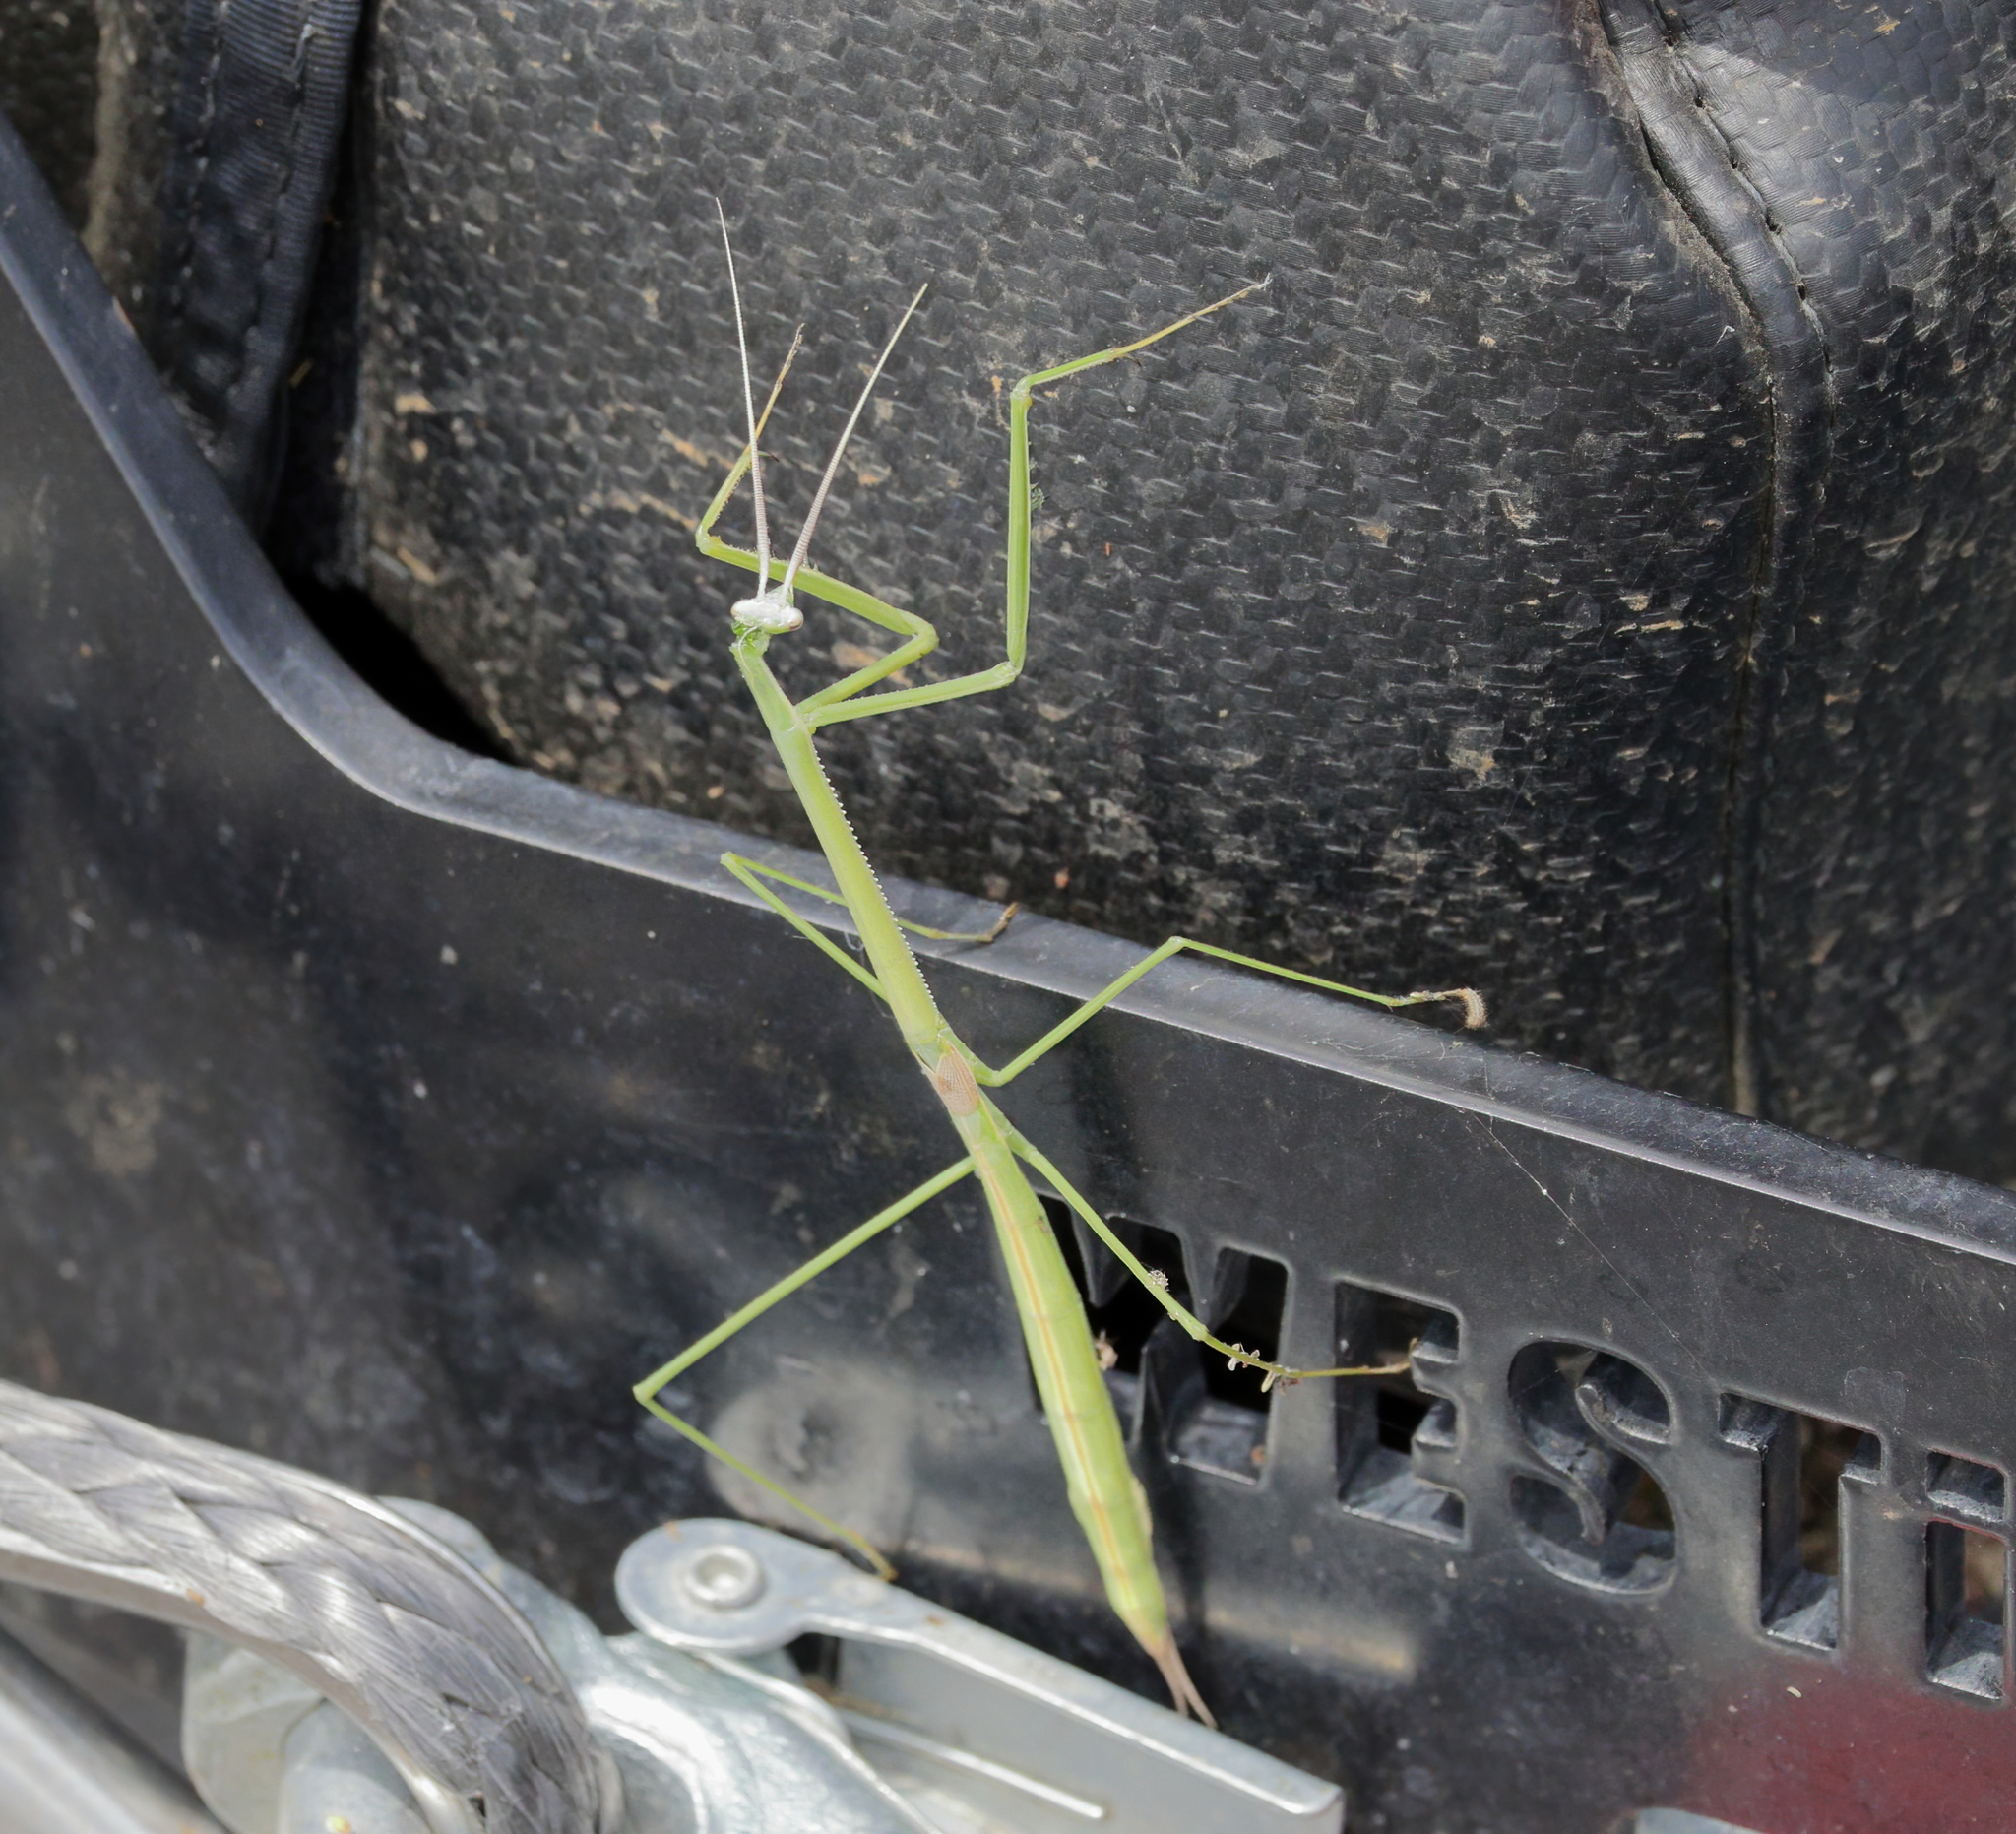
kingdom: Animalia
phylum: Arthropoda
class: Insecta
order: Mantodea
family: Coptopterygidae
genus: Brunneria
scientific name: Brunneria borealis
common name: Mantis
